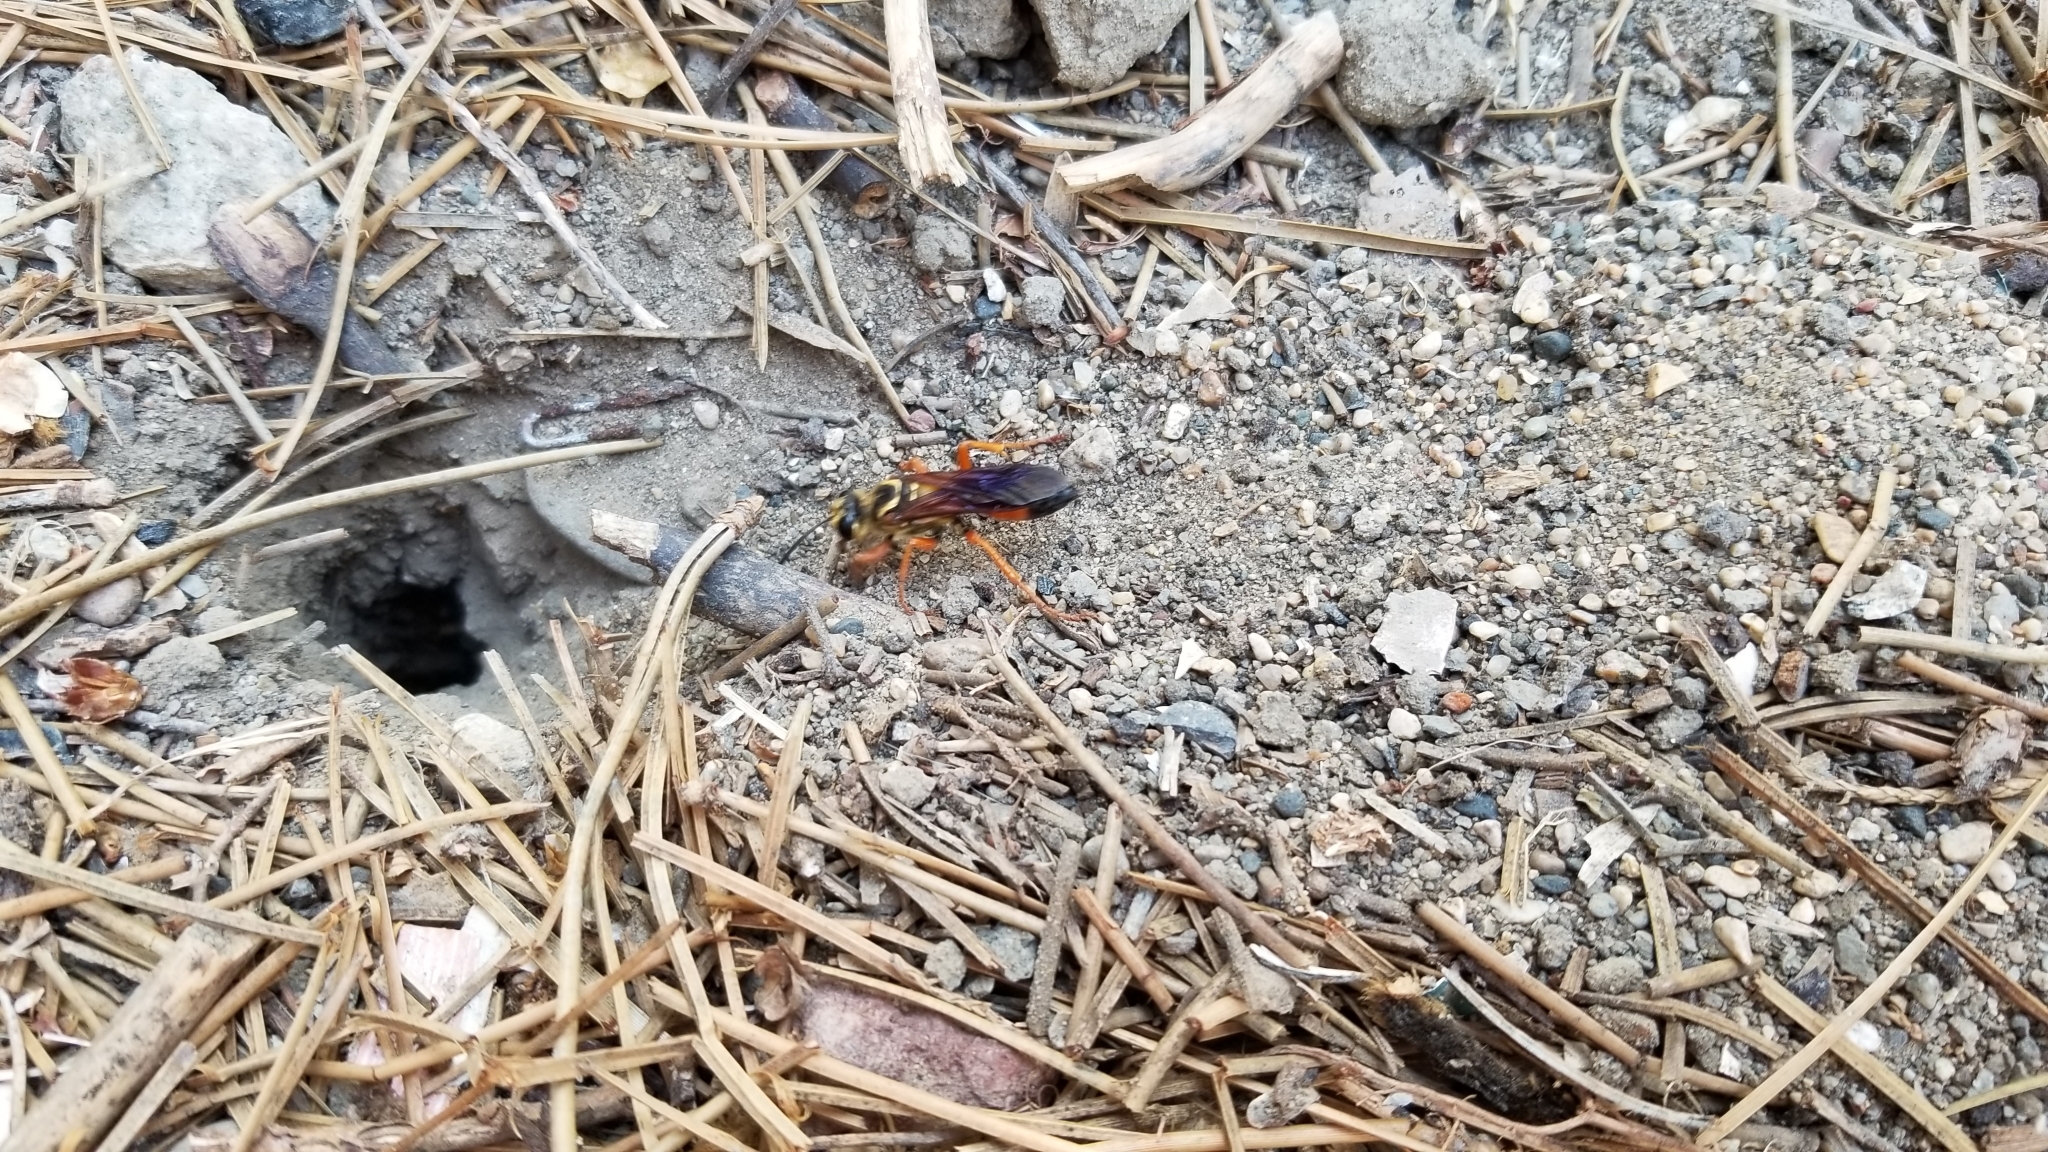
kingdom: Animalia
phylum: Arthropoda
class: Insecta
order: Hymenoptera
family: Sphecidae
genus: Sphex
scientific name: Sphex ichneumoneus
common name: Great golden digger wasp
